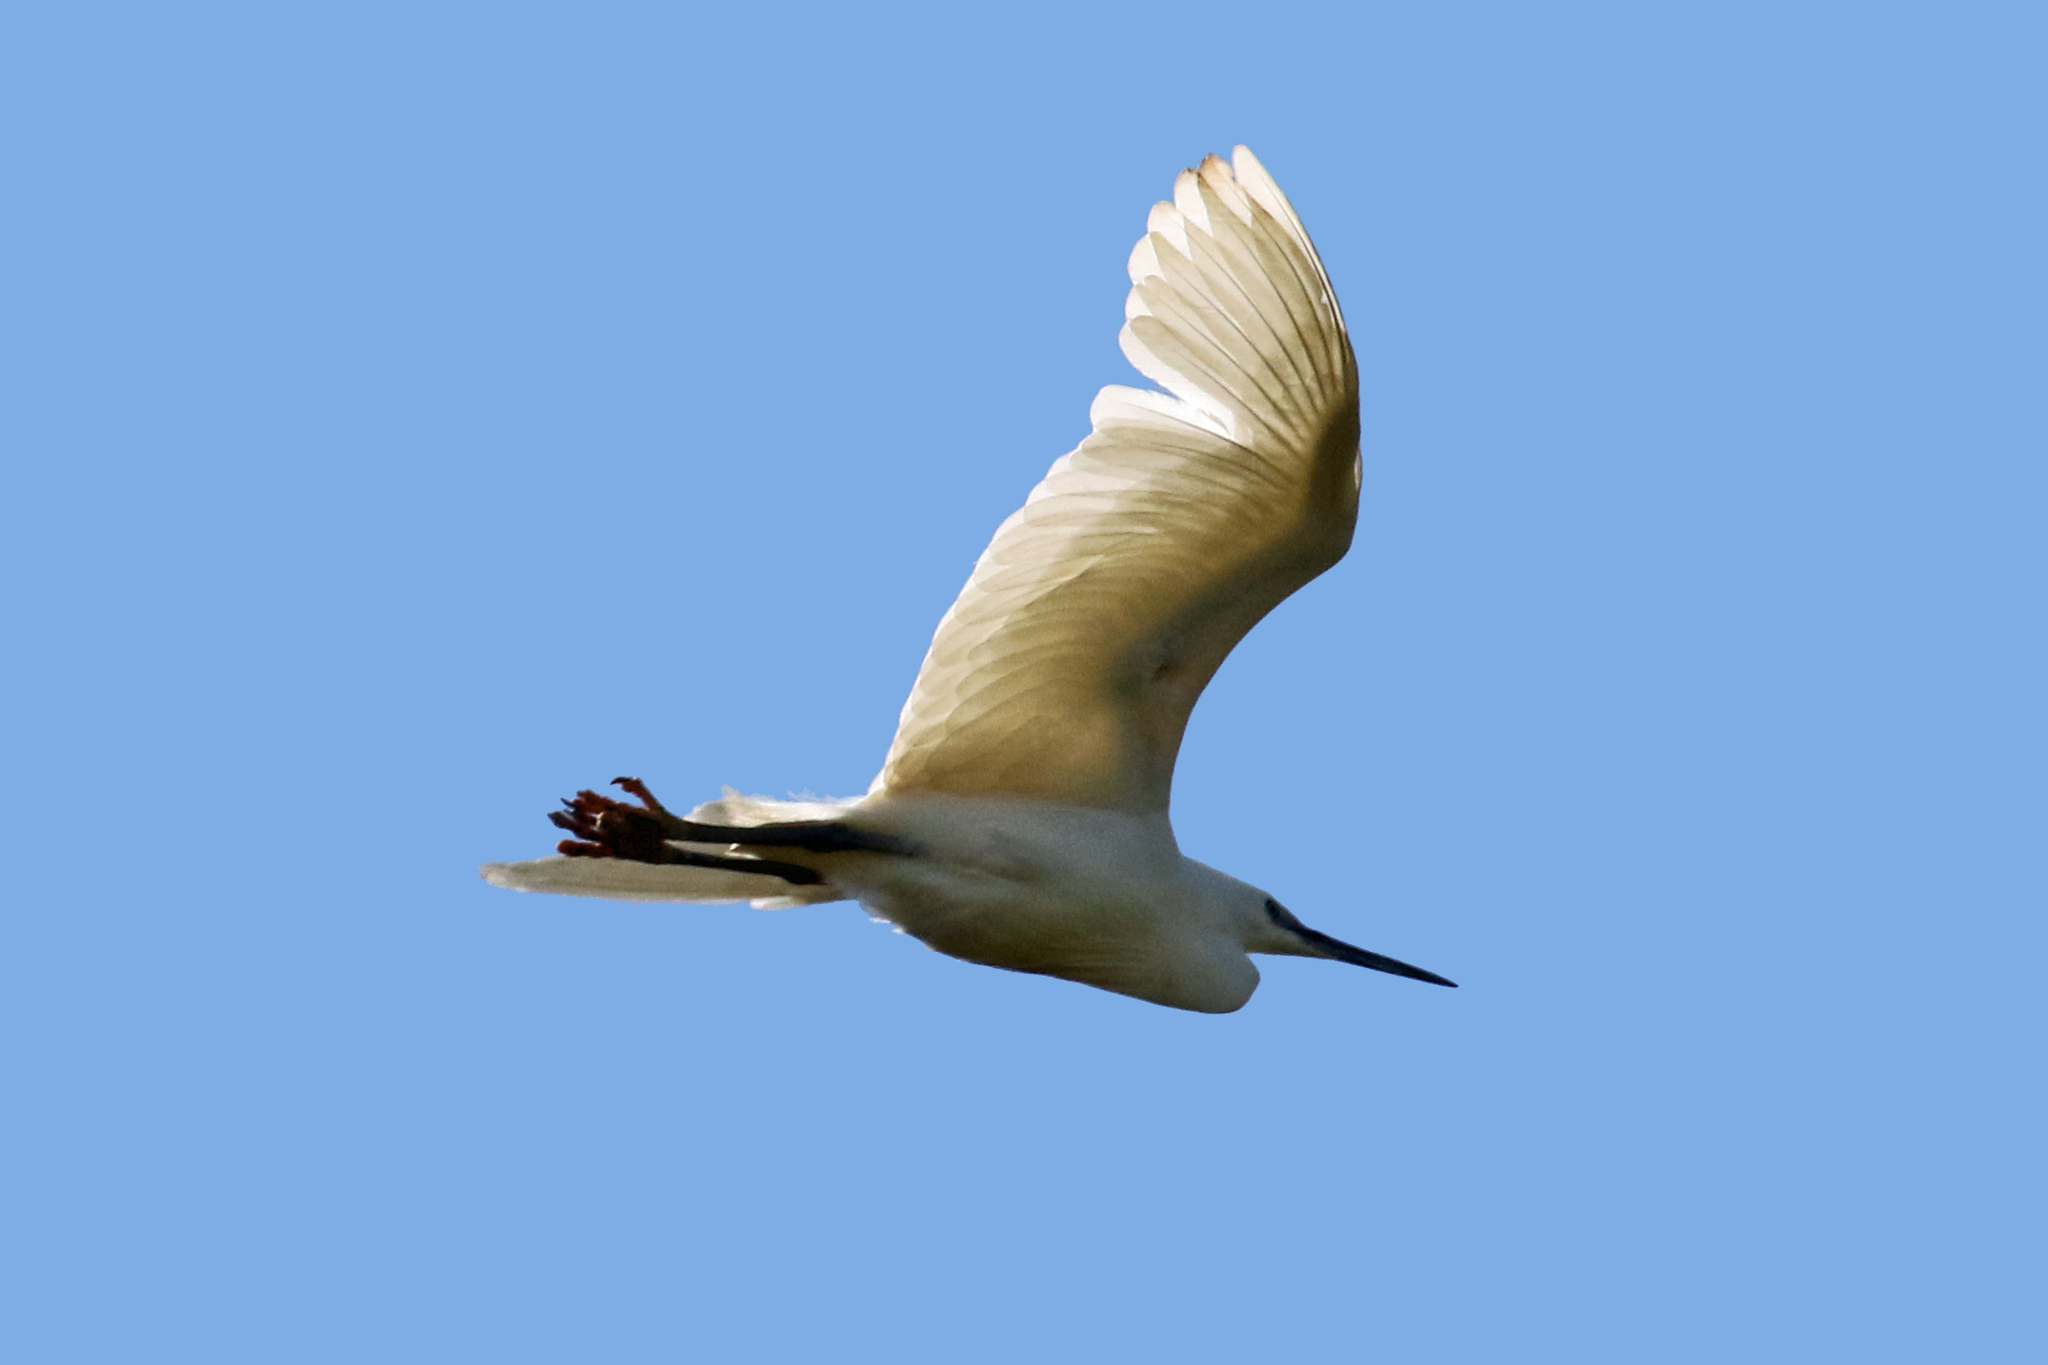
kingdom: Animalia
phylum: Chordata
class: Aves
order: Pelecaniformes
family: Ardeidae
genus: Egretta
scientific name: Egretta garzetta
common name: Little egret
